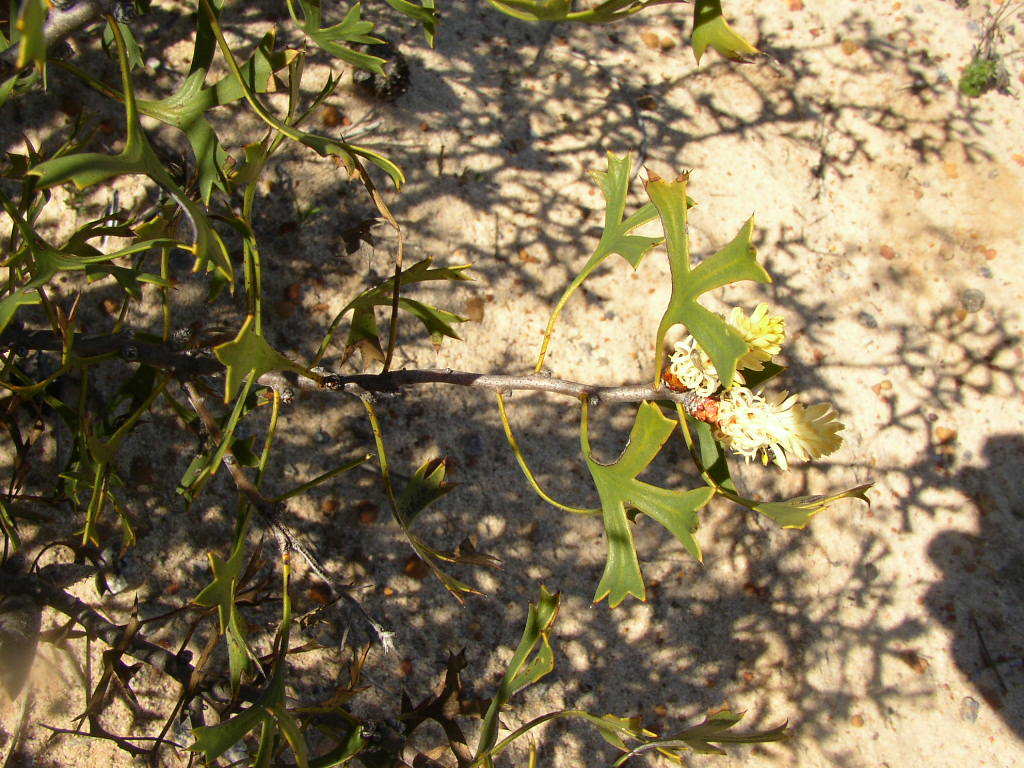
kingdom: Plantae
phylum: Tracheophyta
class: Magnoliopsida
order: Proteales
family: Proteaceae
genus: Petrophile
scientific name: Petrophile shuttleworthiana
